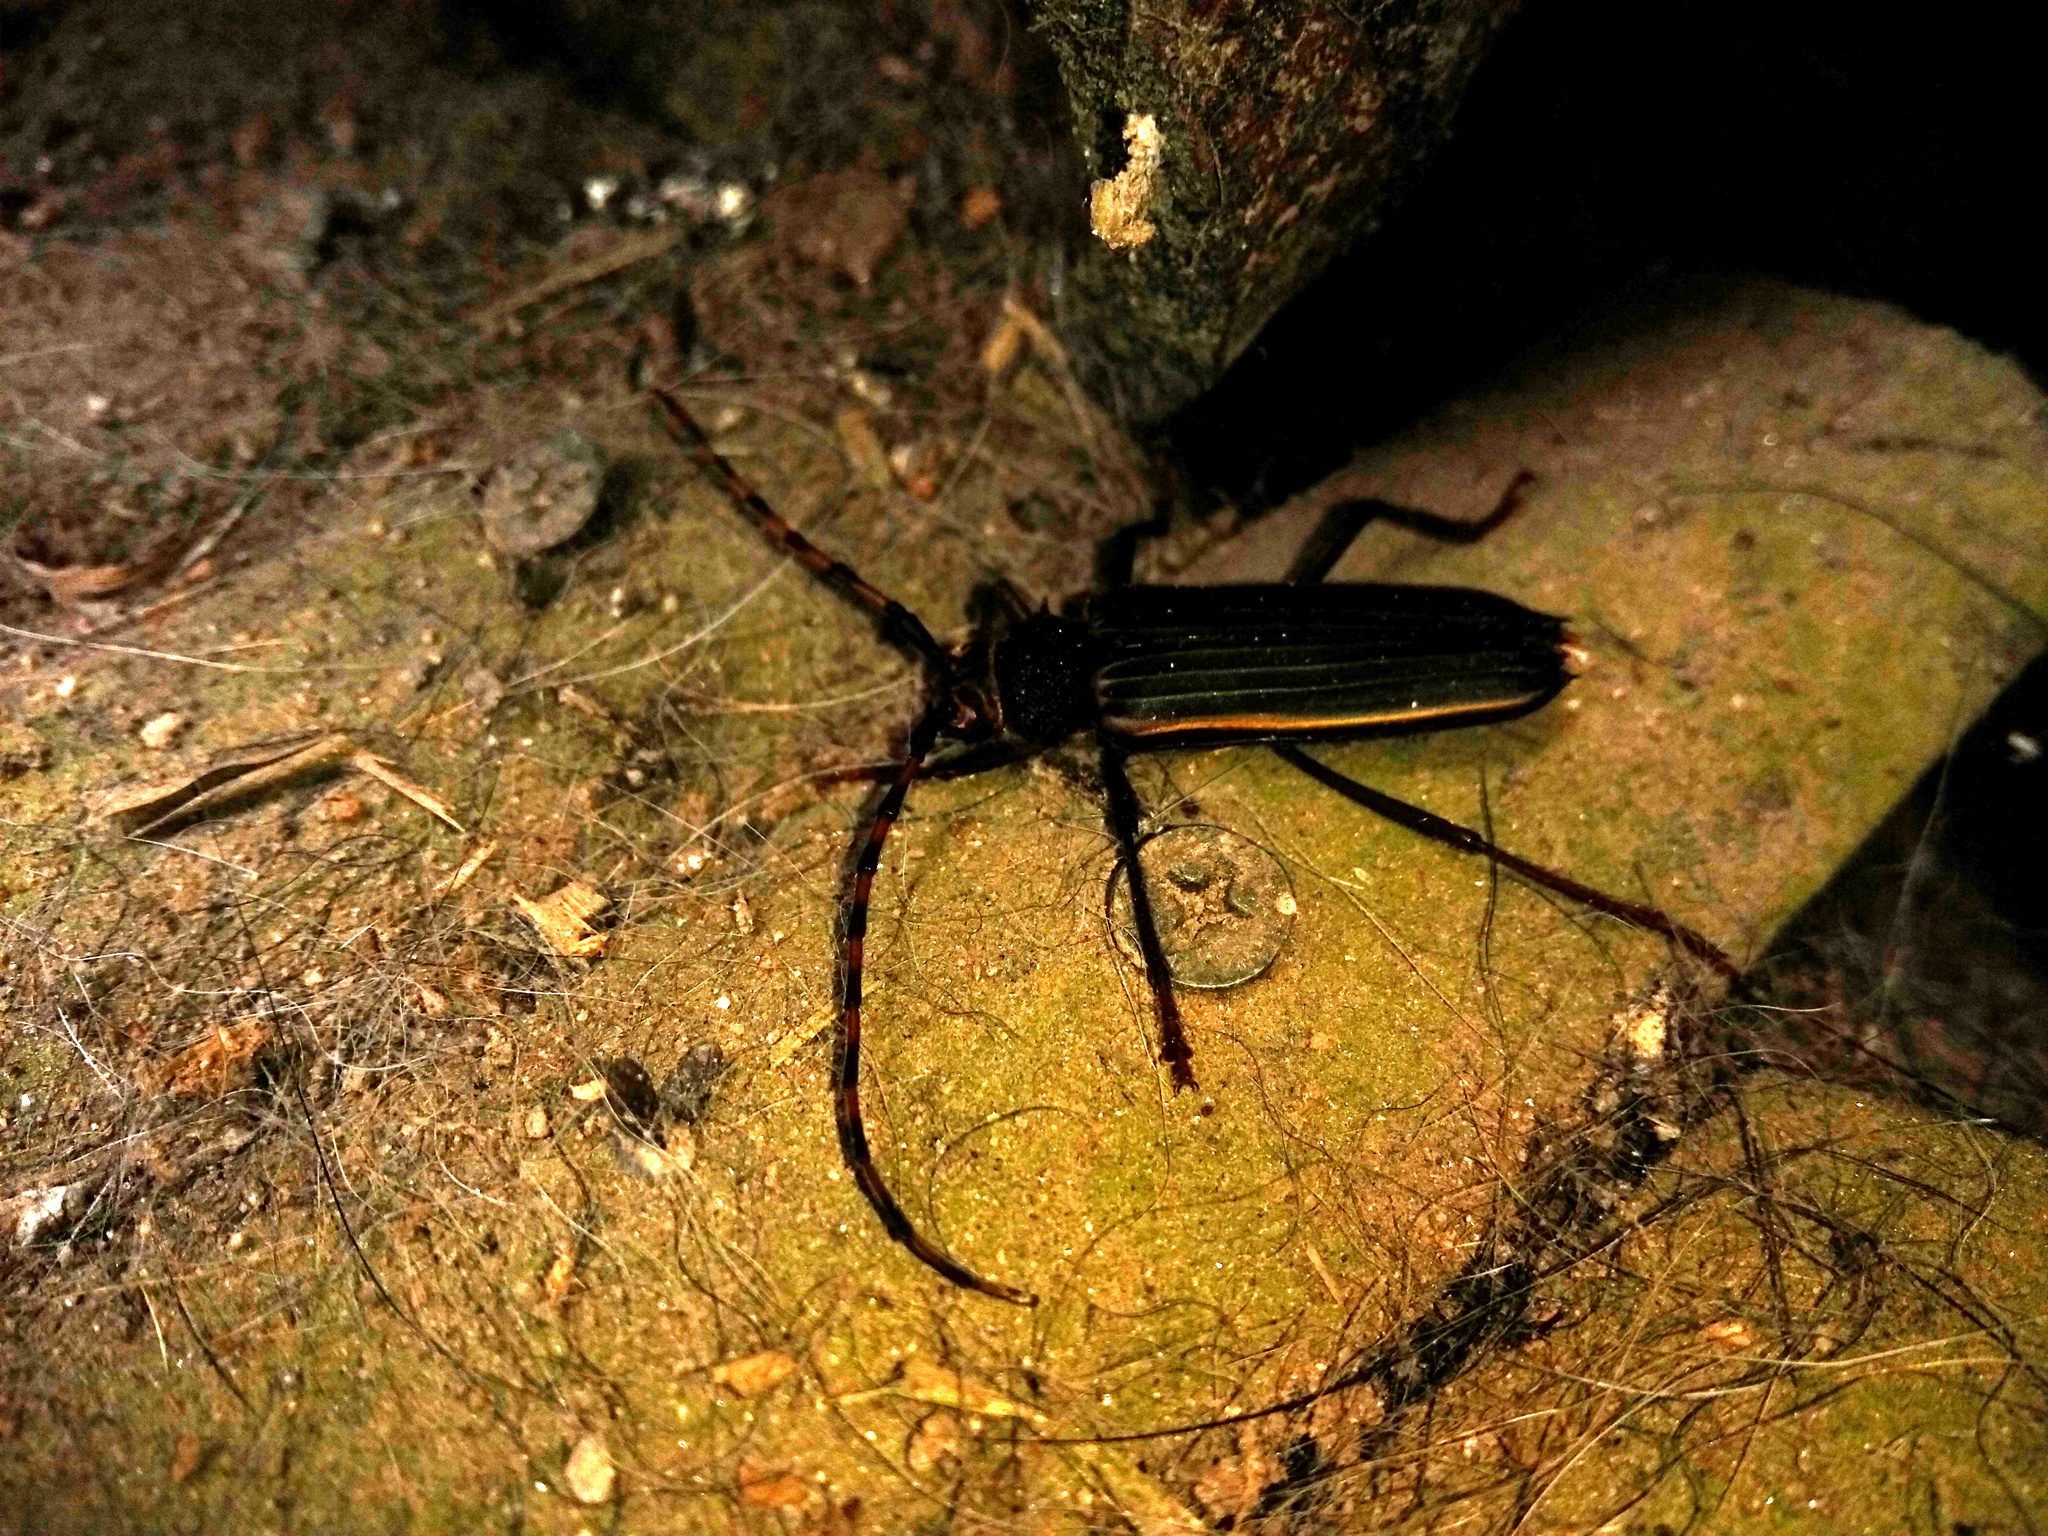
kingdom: Animalia
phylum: Arthropoda
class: Insecta
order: Coleoptera
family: Cerambycidae
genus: Chlorida
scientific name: Chlorida costata
